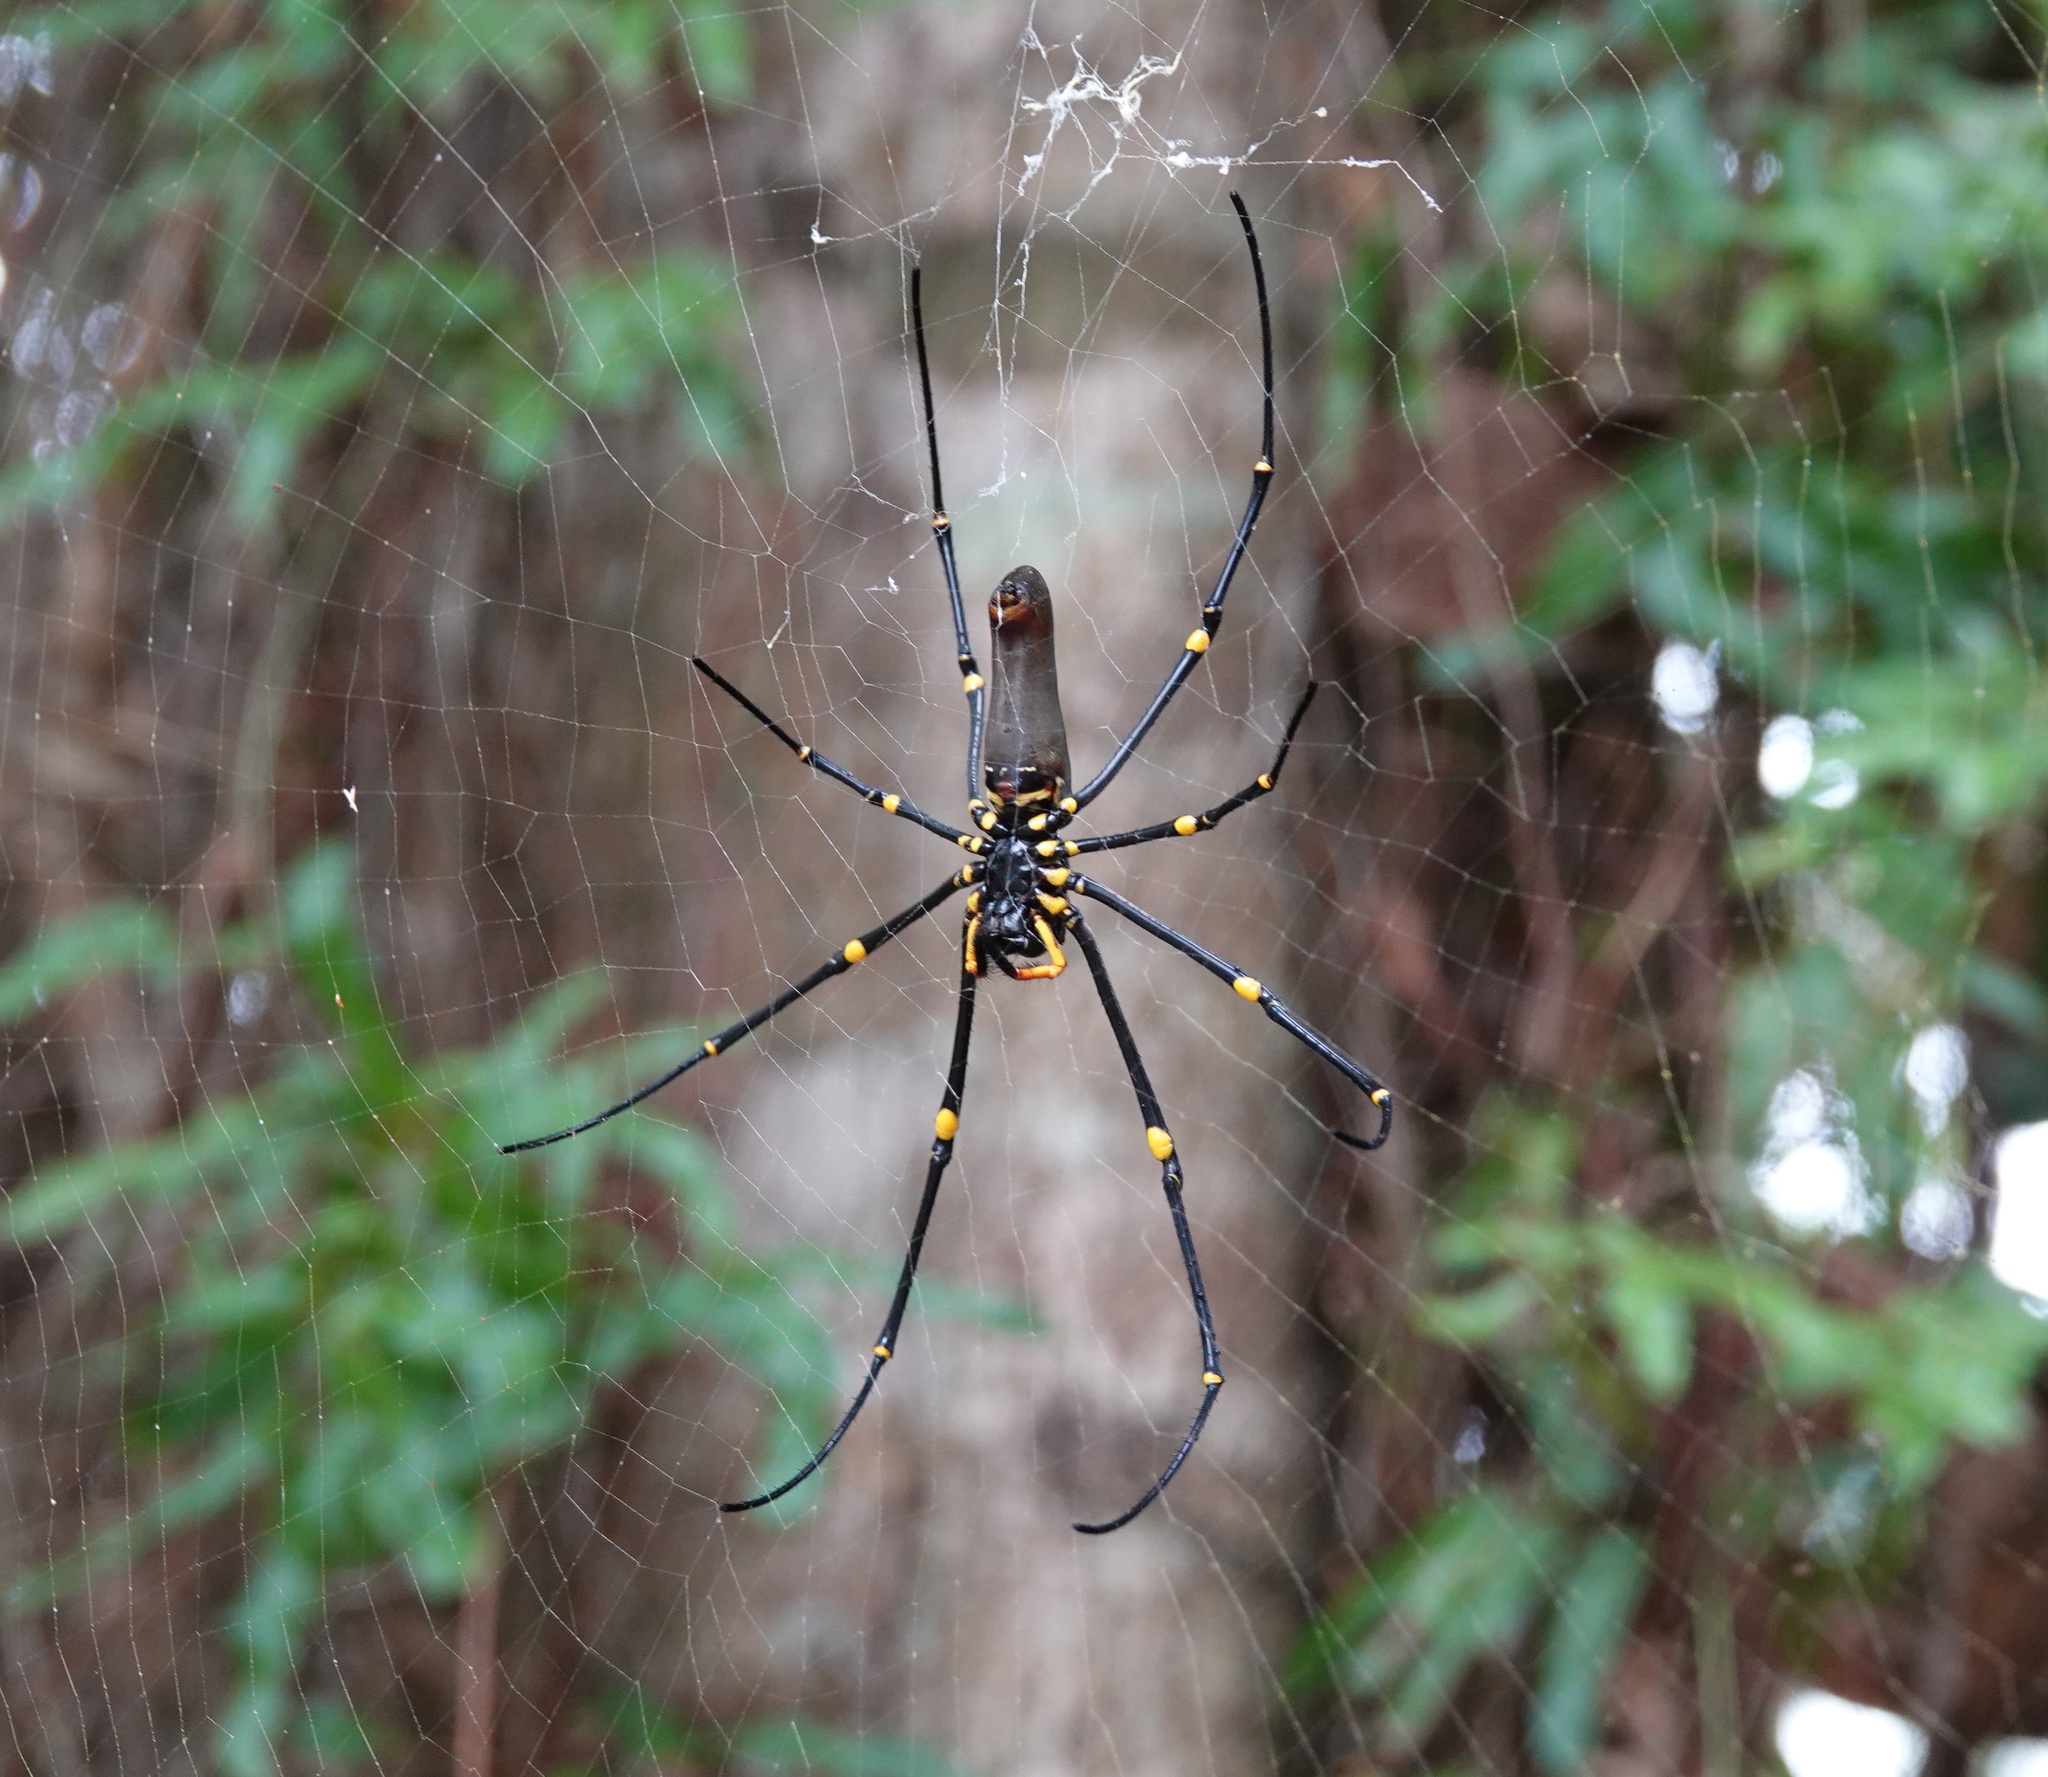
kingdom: Animalia
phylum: Arthropoda
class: Arachnida
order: Araneae
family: Araneidae
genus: Nephila
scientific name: Nephila pilipes
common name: Giant golden orb weaver
